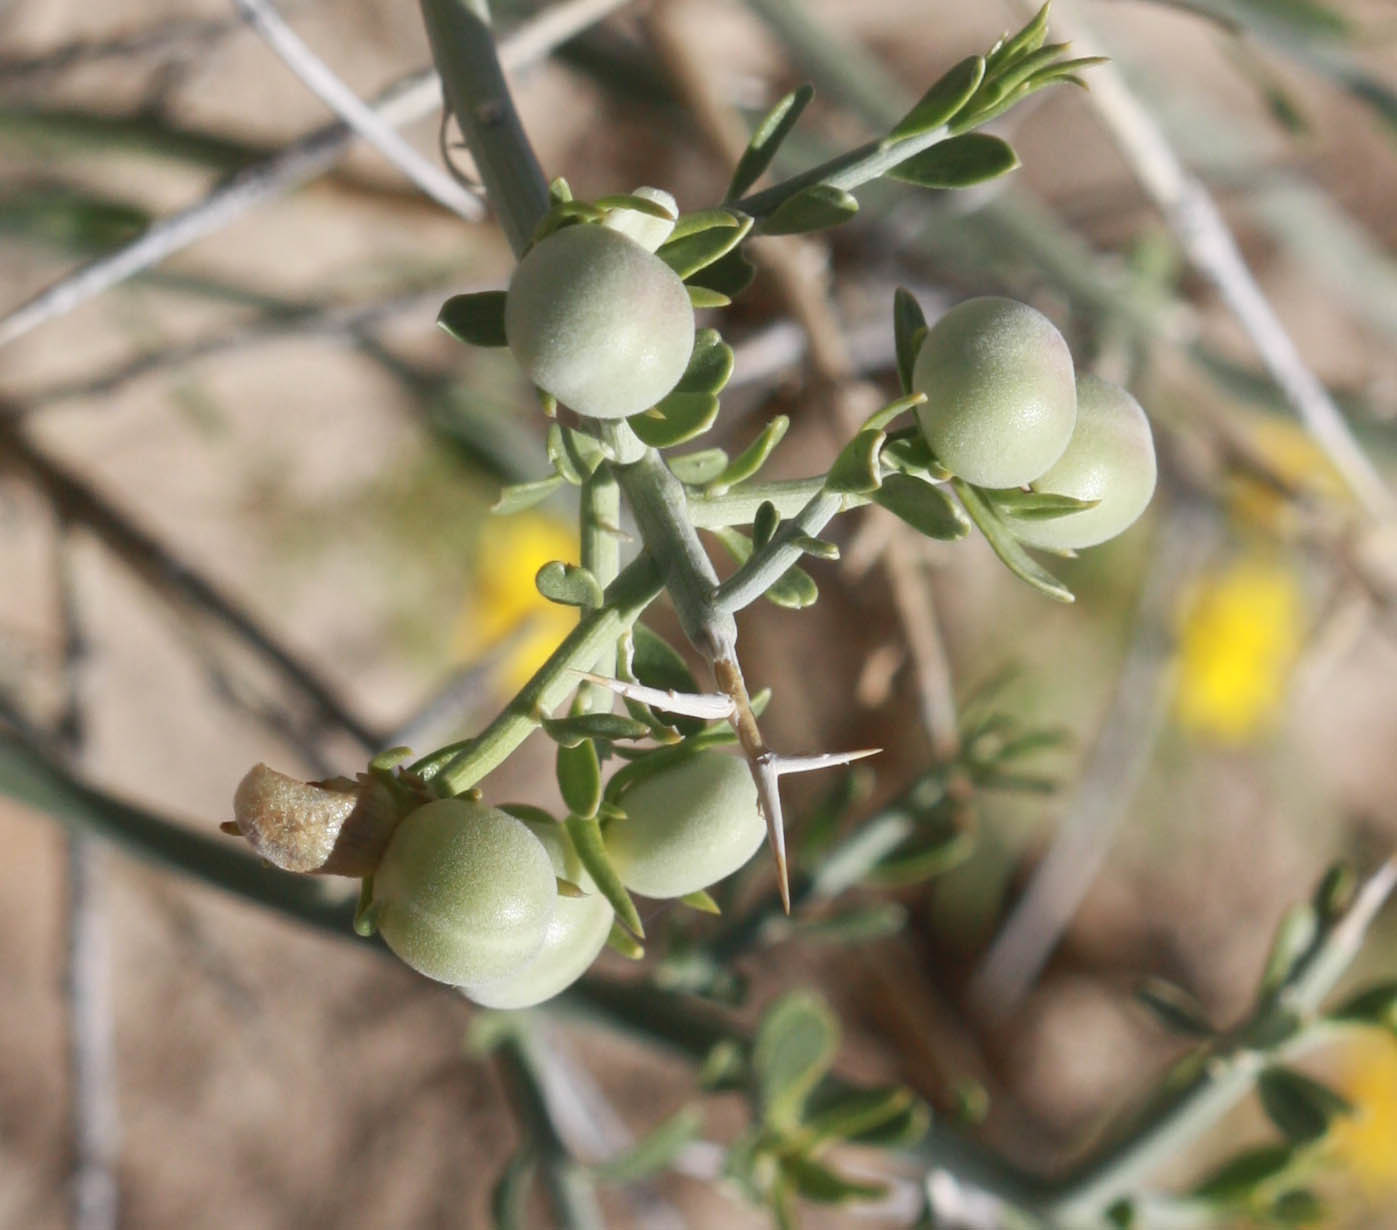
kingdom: Plantae
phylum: Tracheophyta
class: Magnoliopsida
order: Lamiales
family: Oleaceae
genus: Menodora
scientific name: Menodora spinescens
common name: Spiny menodora
